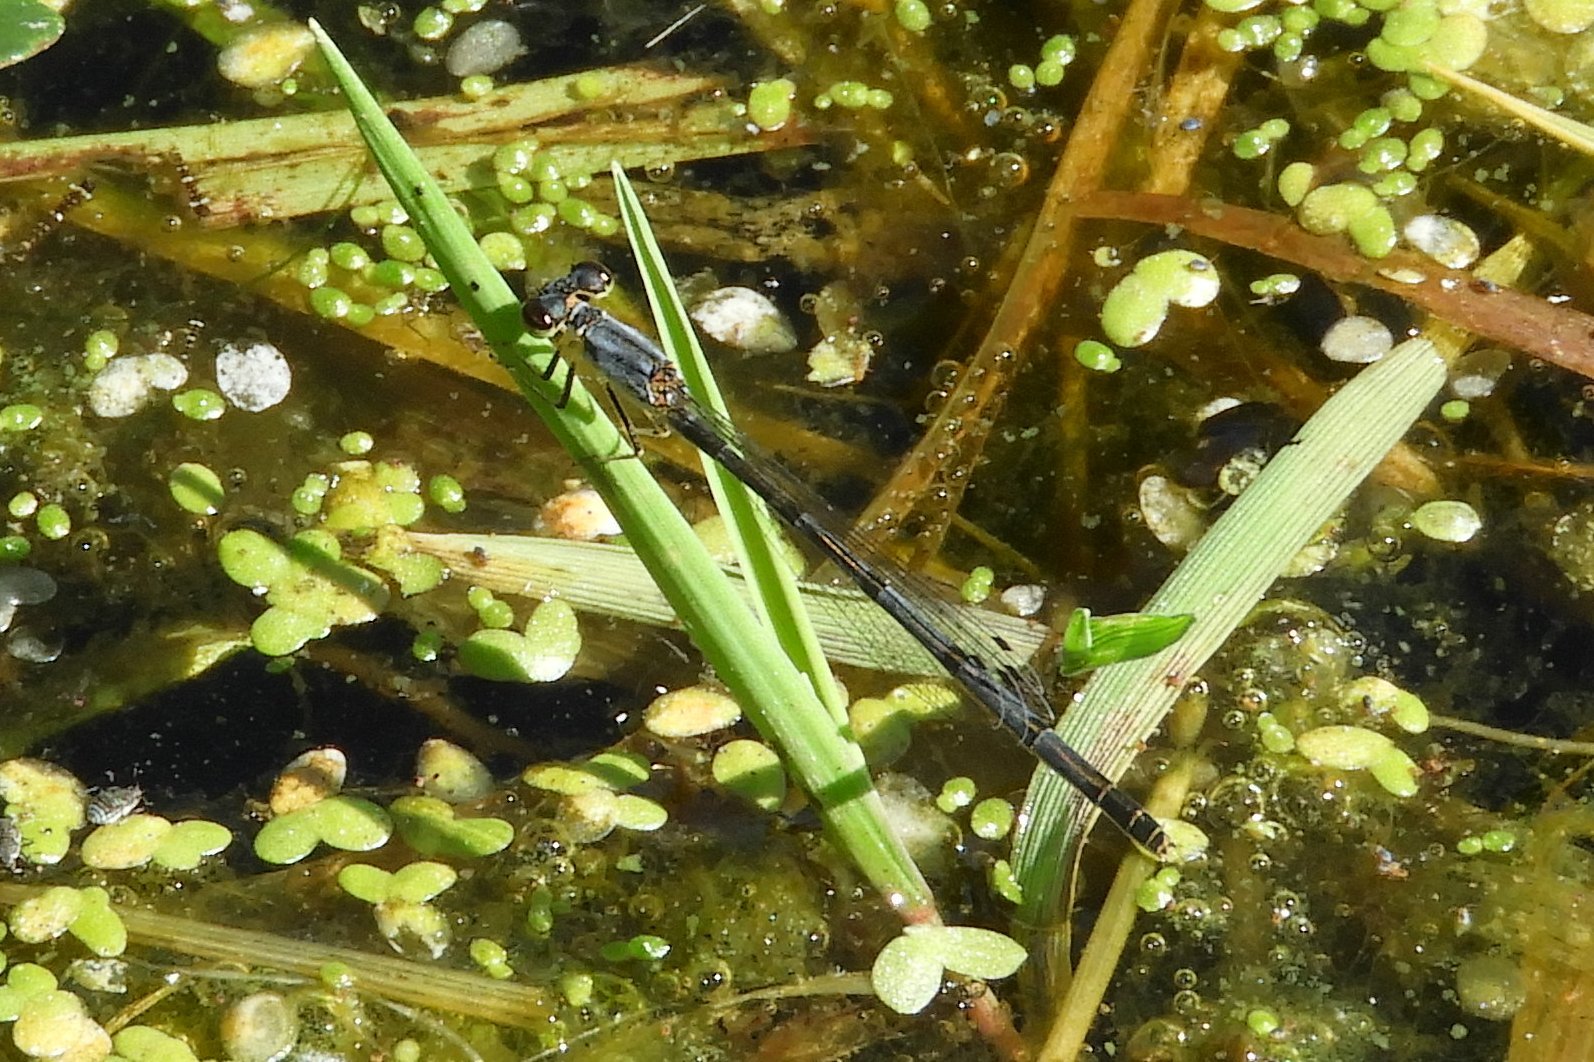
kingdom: Animalia
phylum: Arthropoda
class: Insecta
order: Odonata
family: Coenagrionidae
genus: Ischnura
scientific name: Ischnura posita
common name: Fragile forktail
